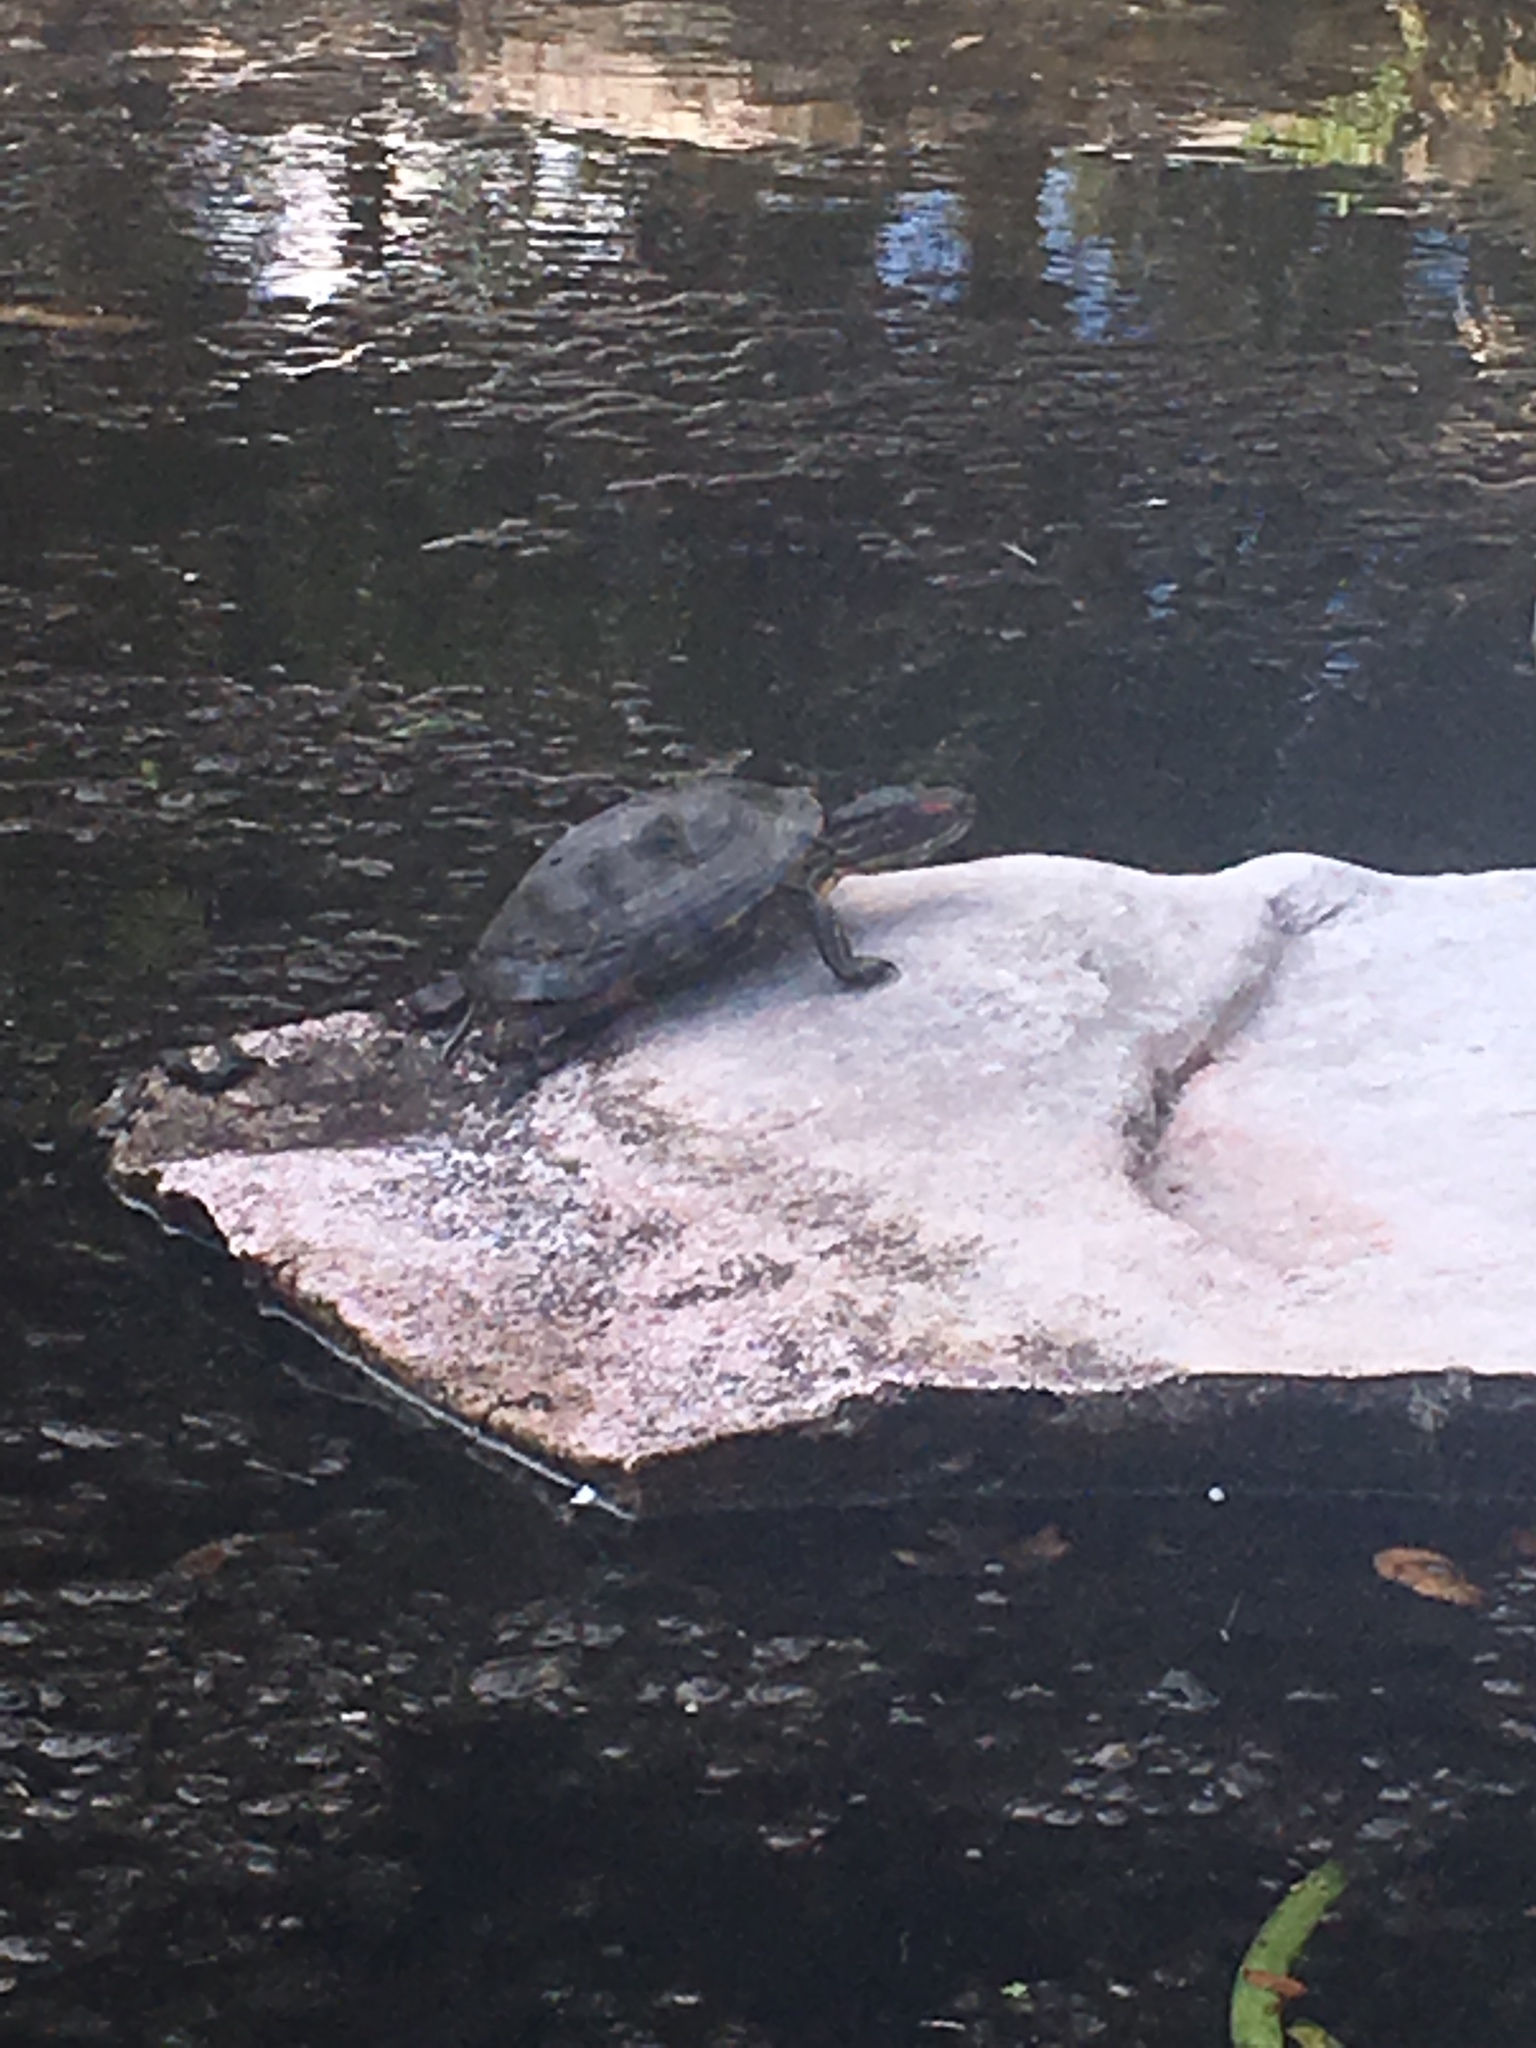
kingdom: Animalia
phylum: Chordata
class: Testudines
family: Emydidae
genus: Trachemys
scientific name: Trachemys scripta
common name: Slider
